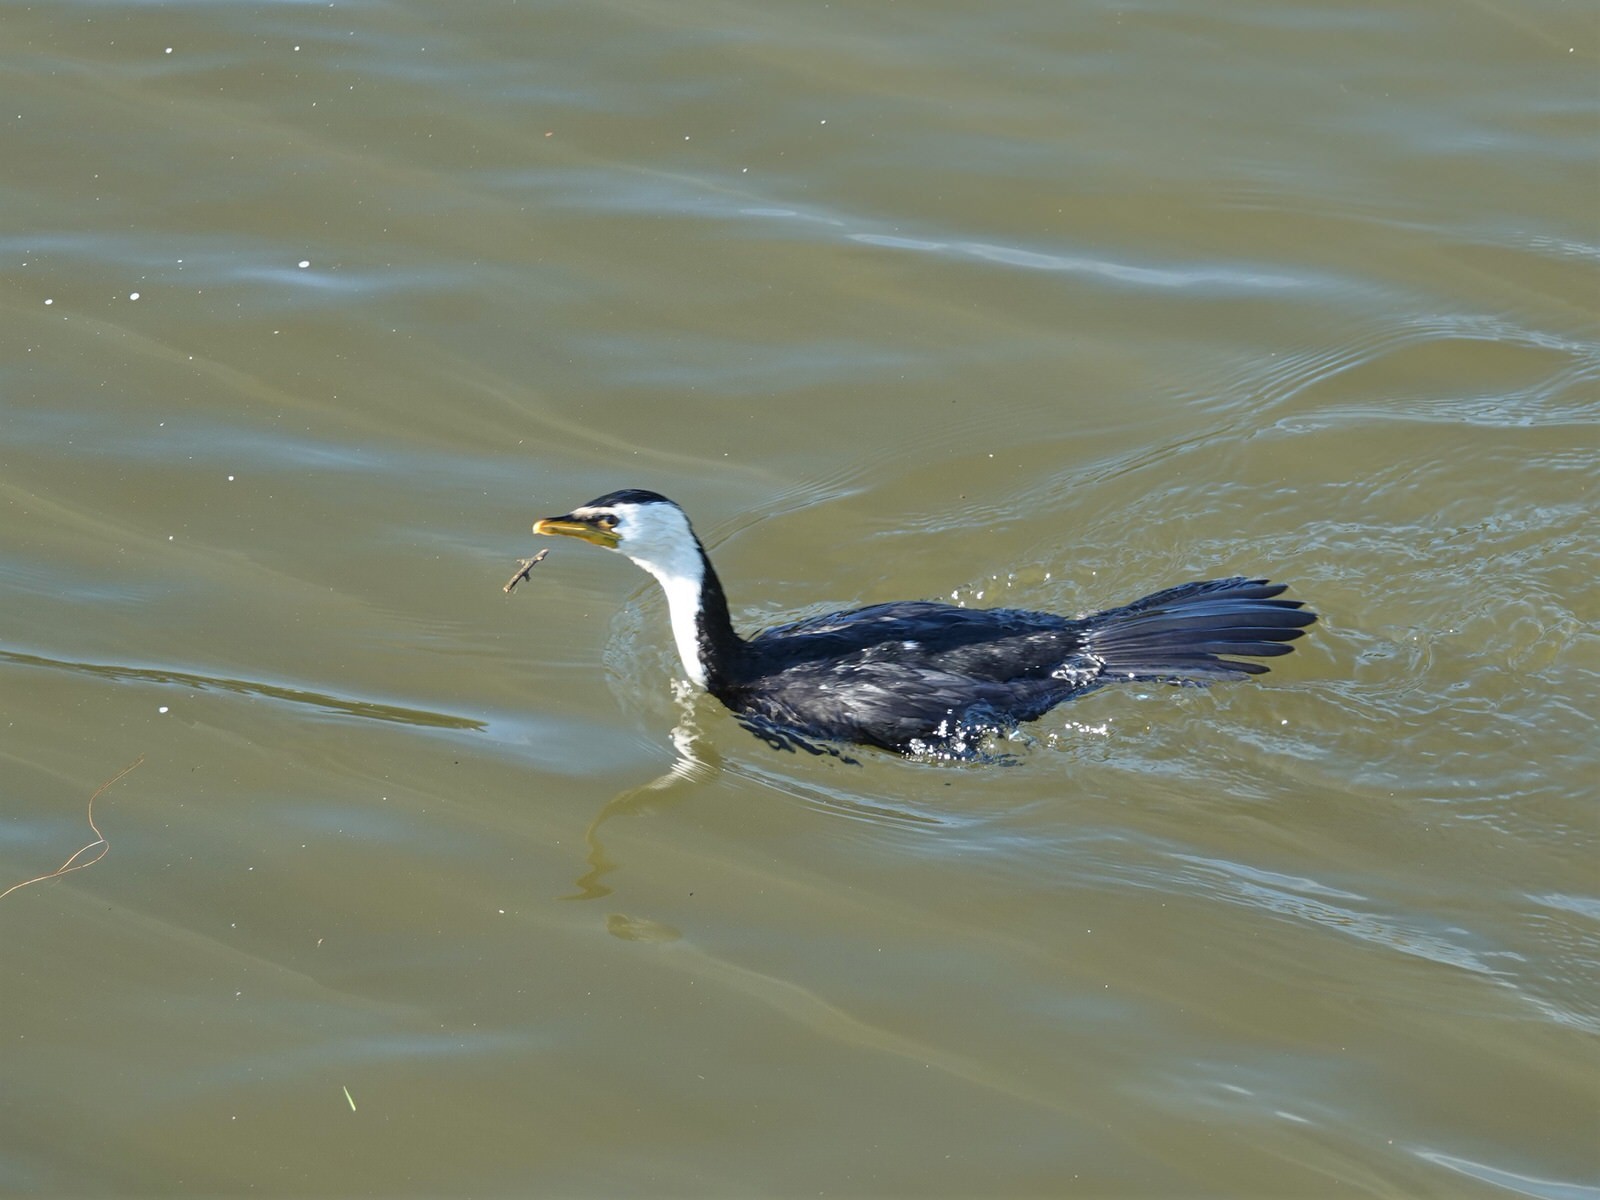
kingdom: Animalia
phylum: Chordata
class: Aves
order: Suliformes
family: Phalacrocoracidae
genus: Microcarbo
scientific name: Microcarbo melanoleucos
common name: Little pied cormorant
